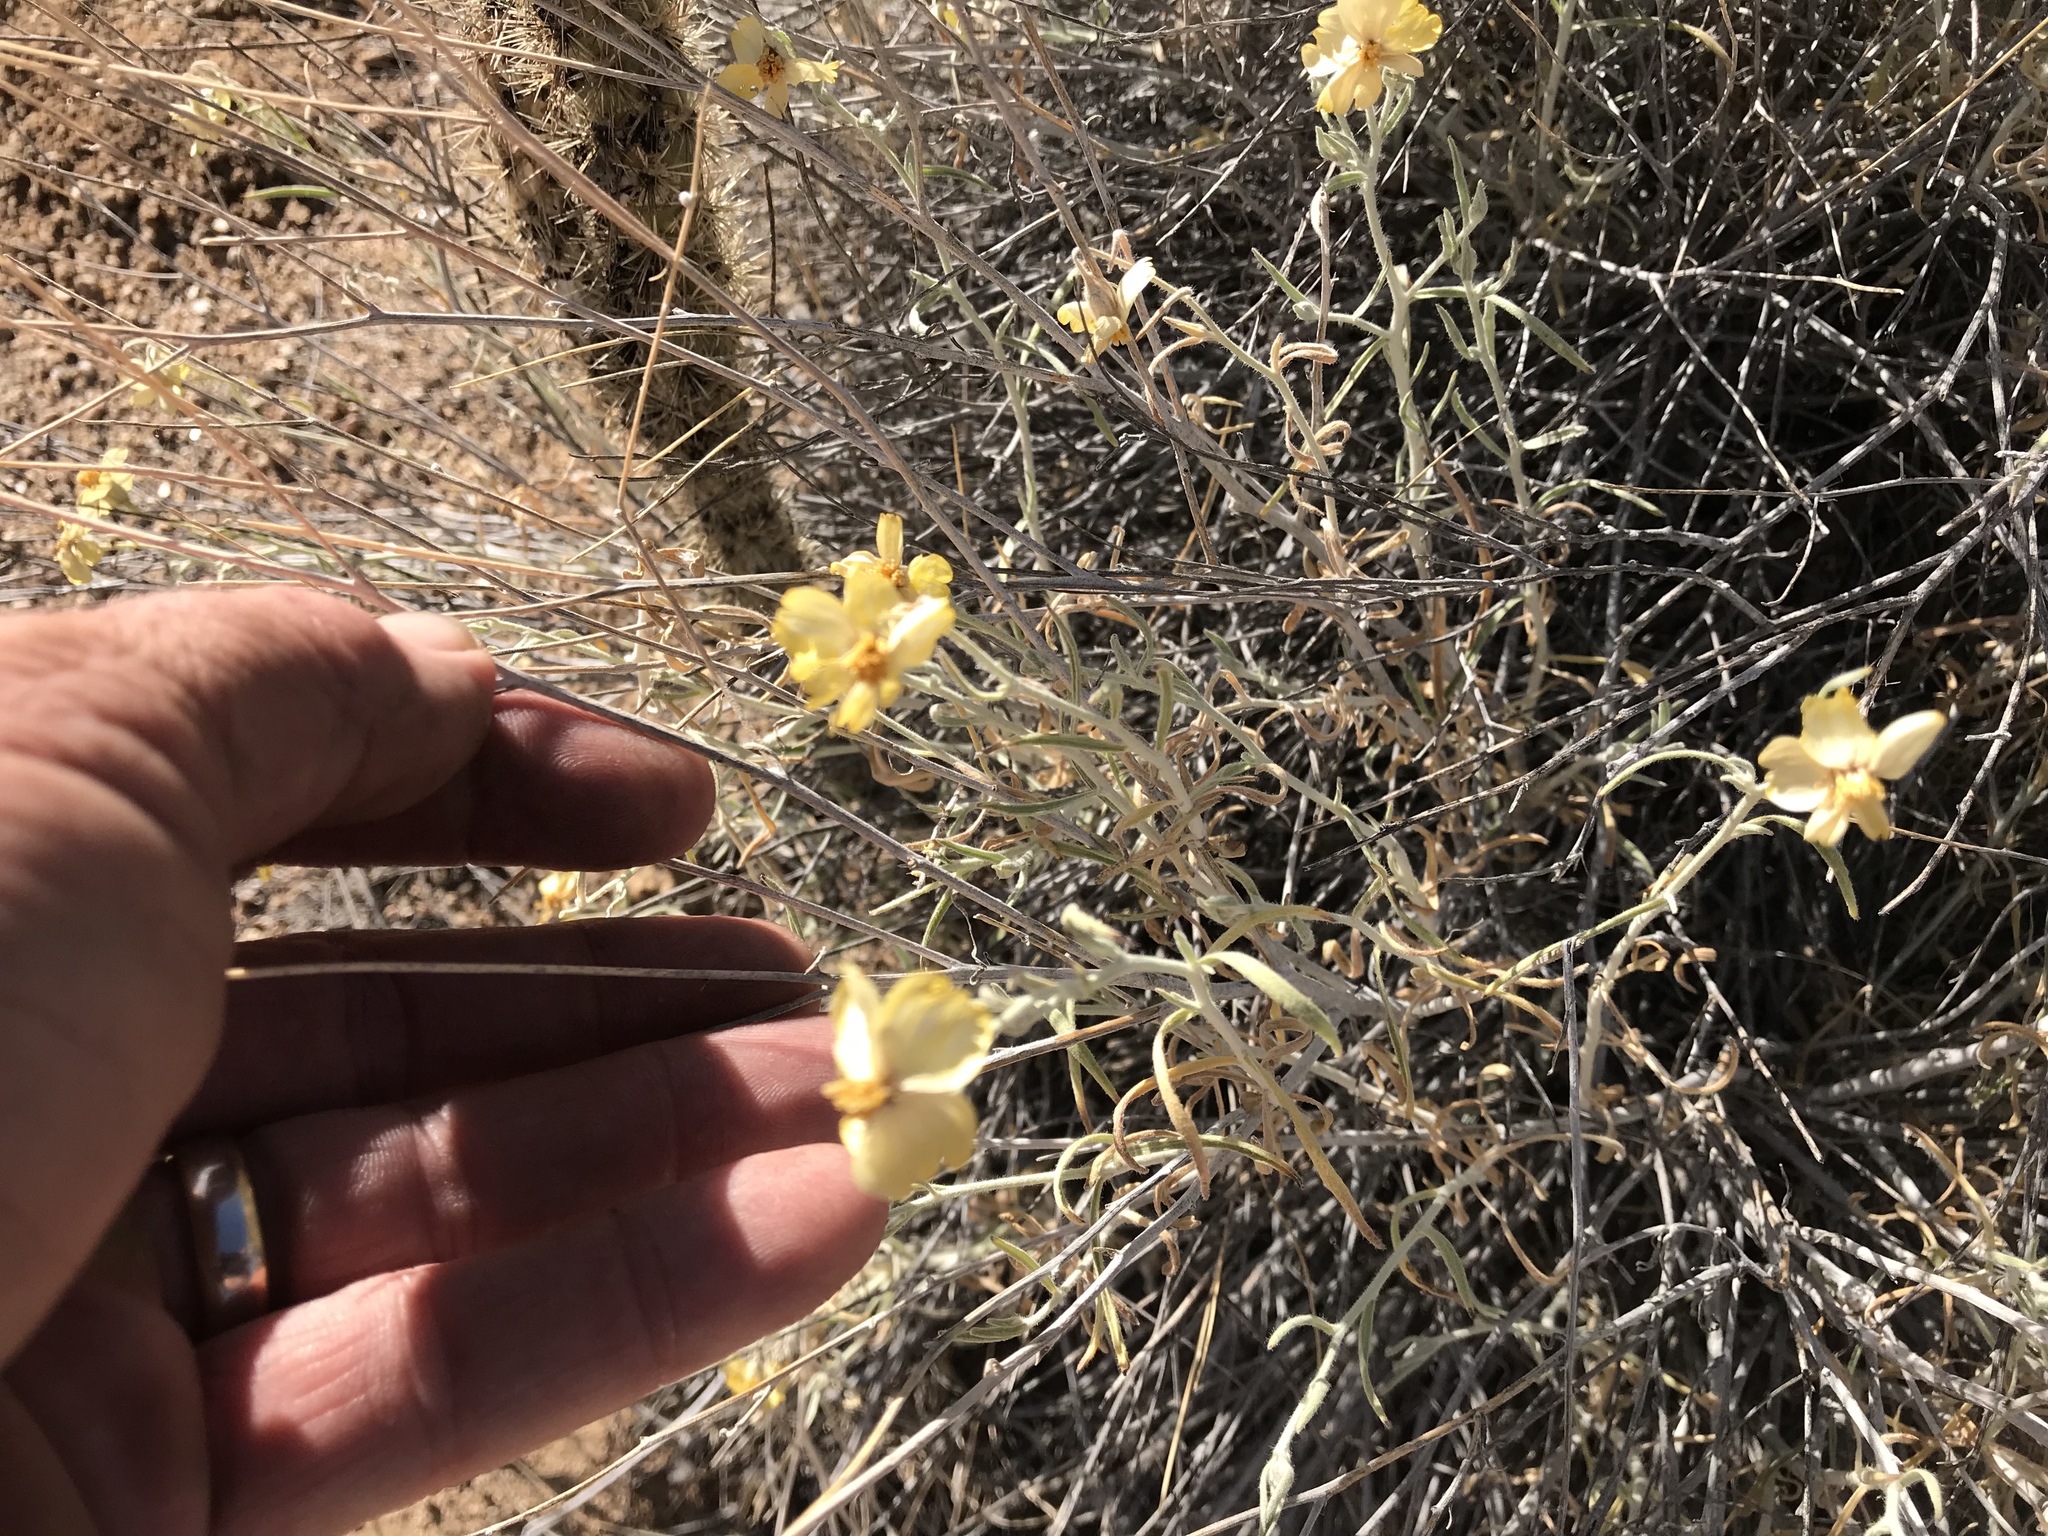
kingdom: Plantae
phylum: Tracheophyta
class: Magnoliopsida
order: Asterales
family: Asteraceae
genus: Psilostrophe
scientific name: Psilostrophe cooperi
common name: White-stem paper-flower
